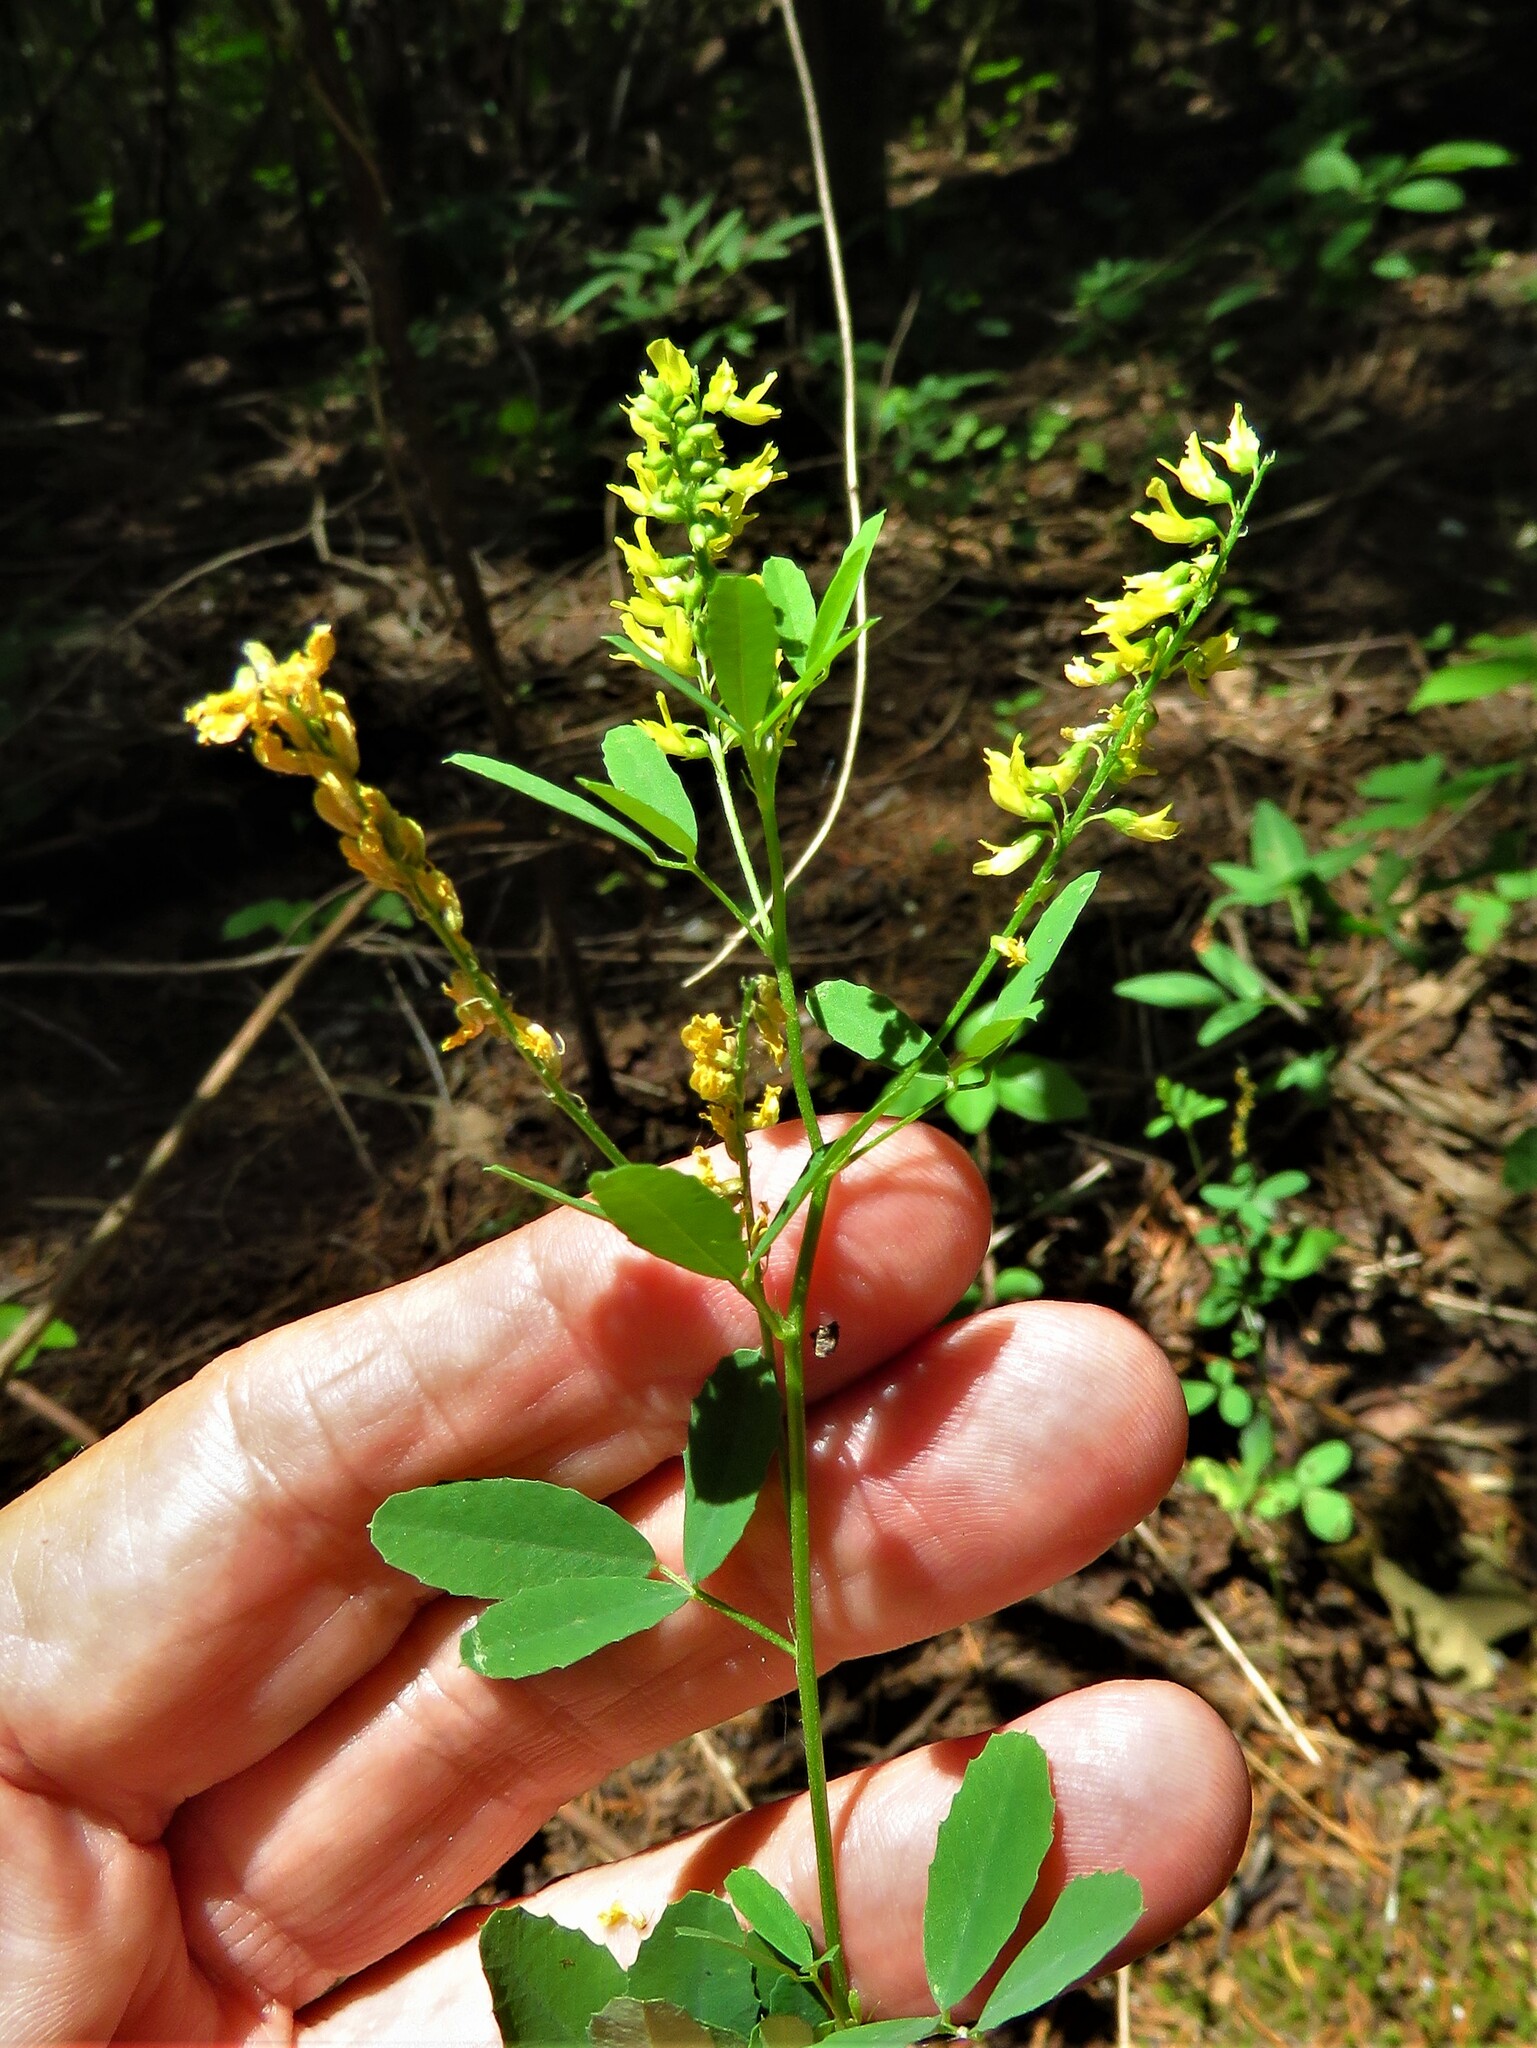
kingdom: Plantae
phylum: Tracheophyta
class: Magnoliopsida
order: Fabales
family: Fabaceae
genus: Melilotus
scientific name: Melilotus officinalis
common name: Sweetclover
